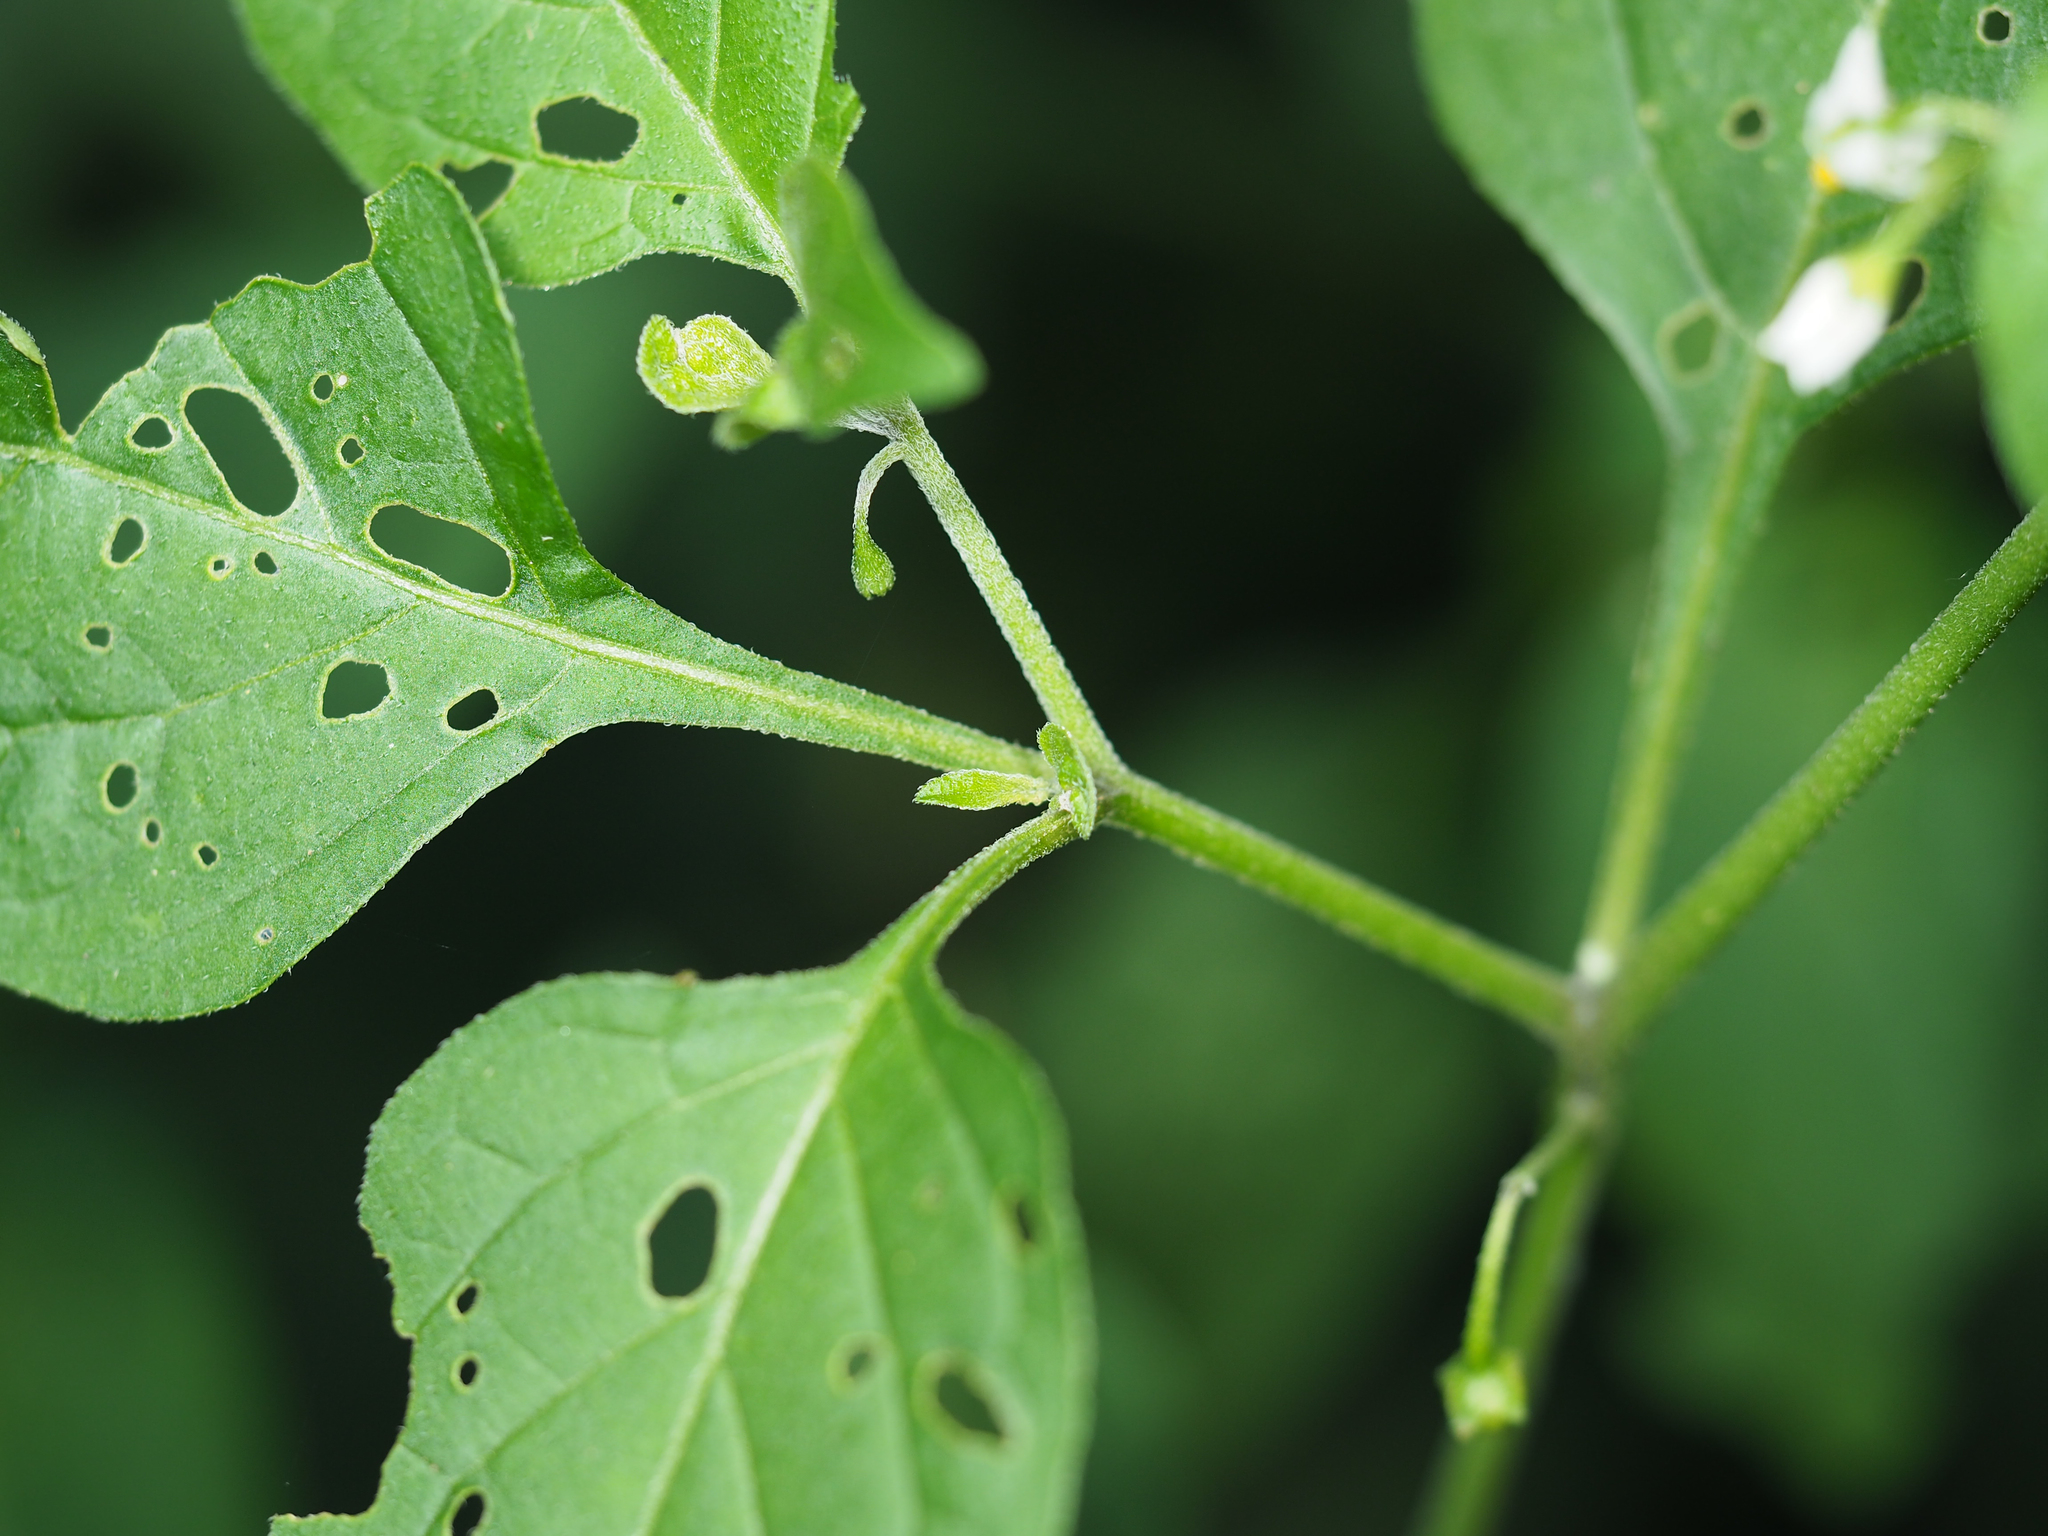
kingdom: Plantae
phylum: Tracheophyta
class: Magnoliopsida
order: Solanales
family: Solanaceae
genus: Solanum
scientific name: Solanum emulans
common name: Eastern black nightshade
